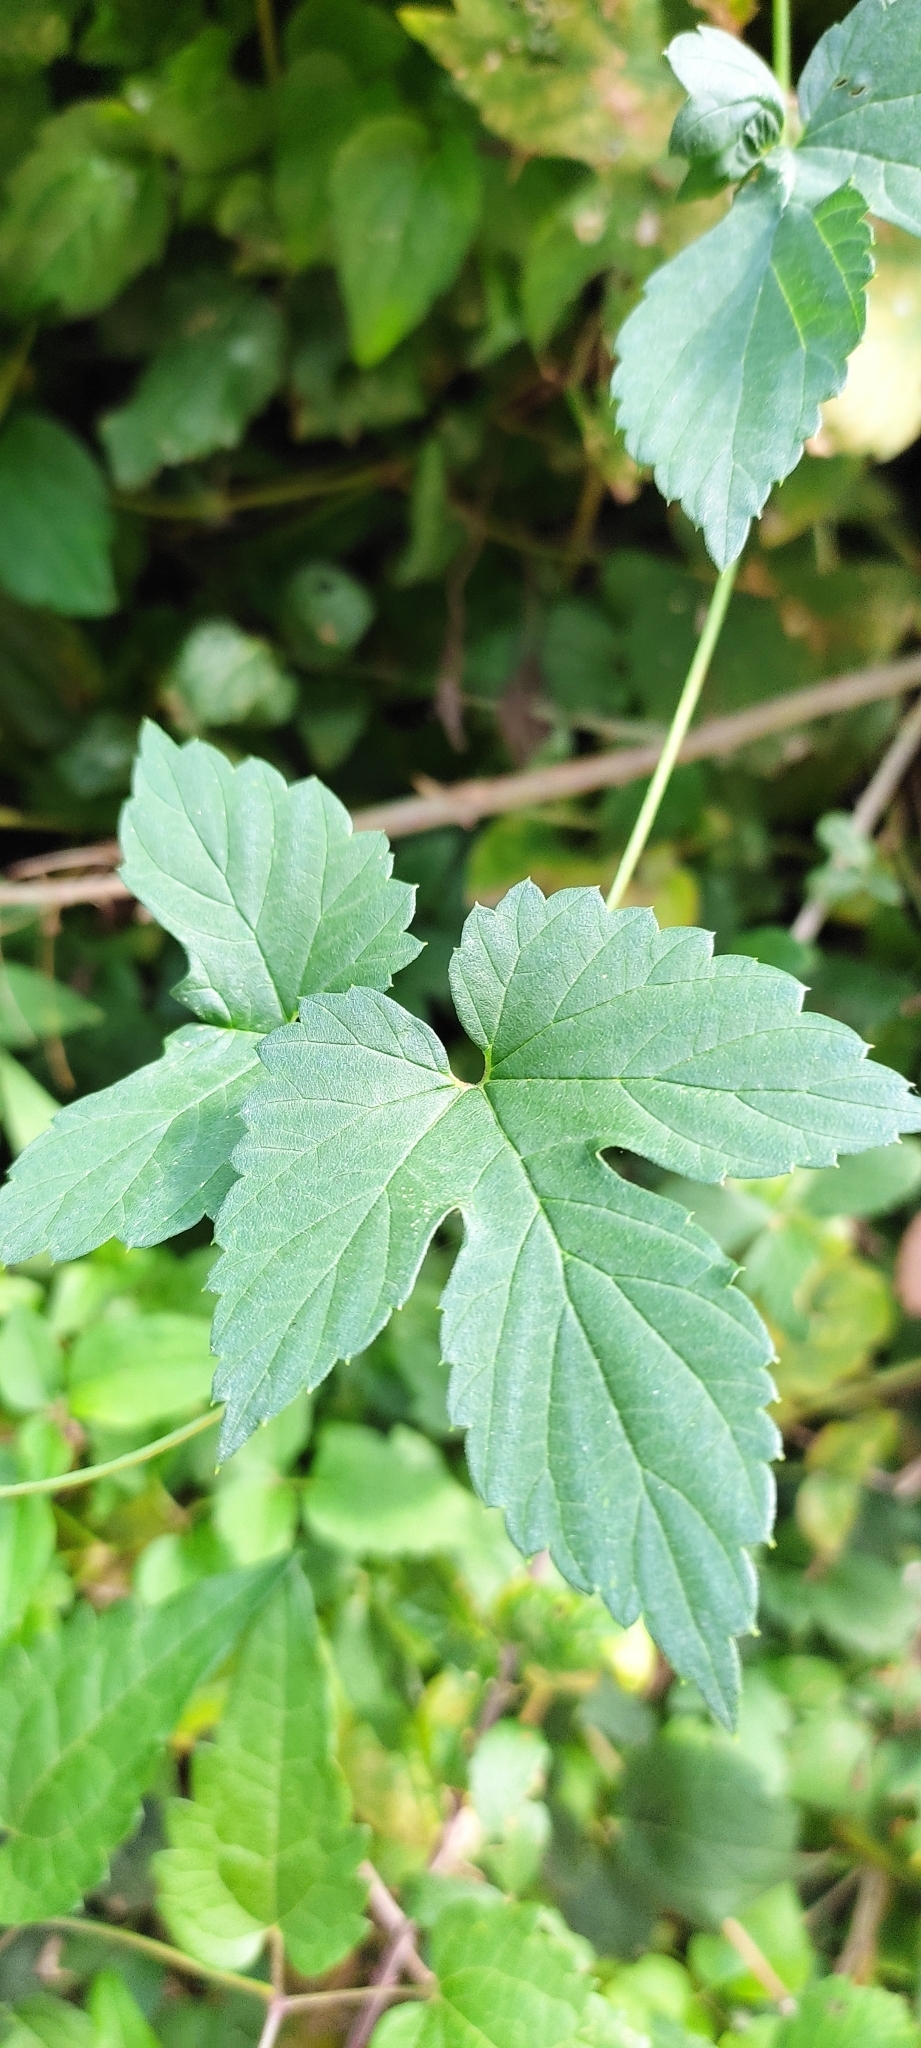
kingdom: Plantae
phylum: Tracheophyta
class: Magnoliopsida
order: Rosales
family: Cannabaceae
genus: Humulus
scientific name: Humulus lupulus
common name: Hop
